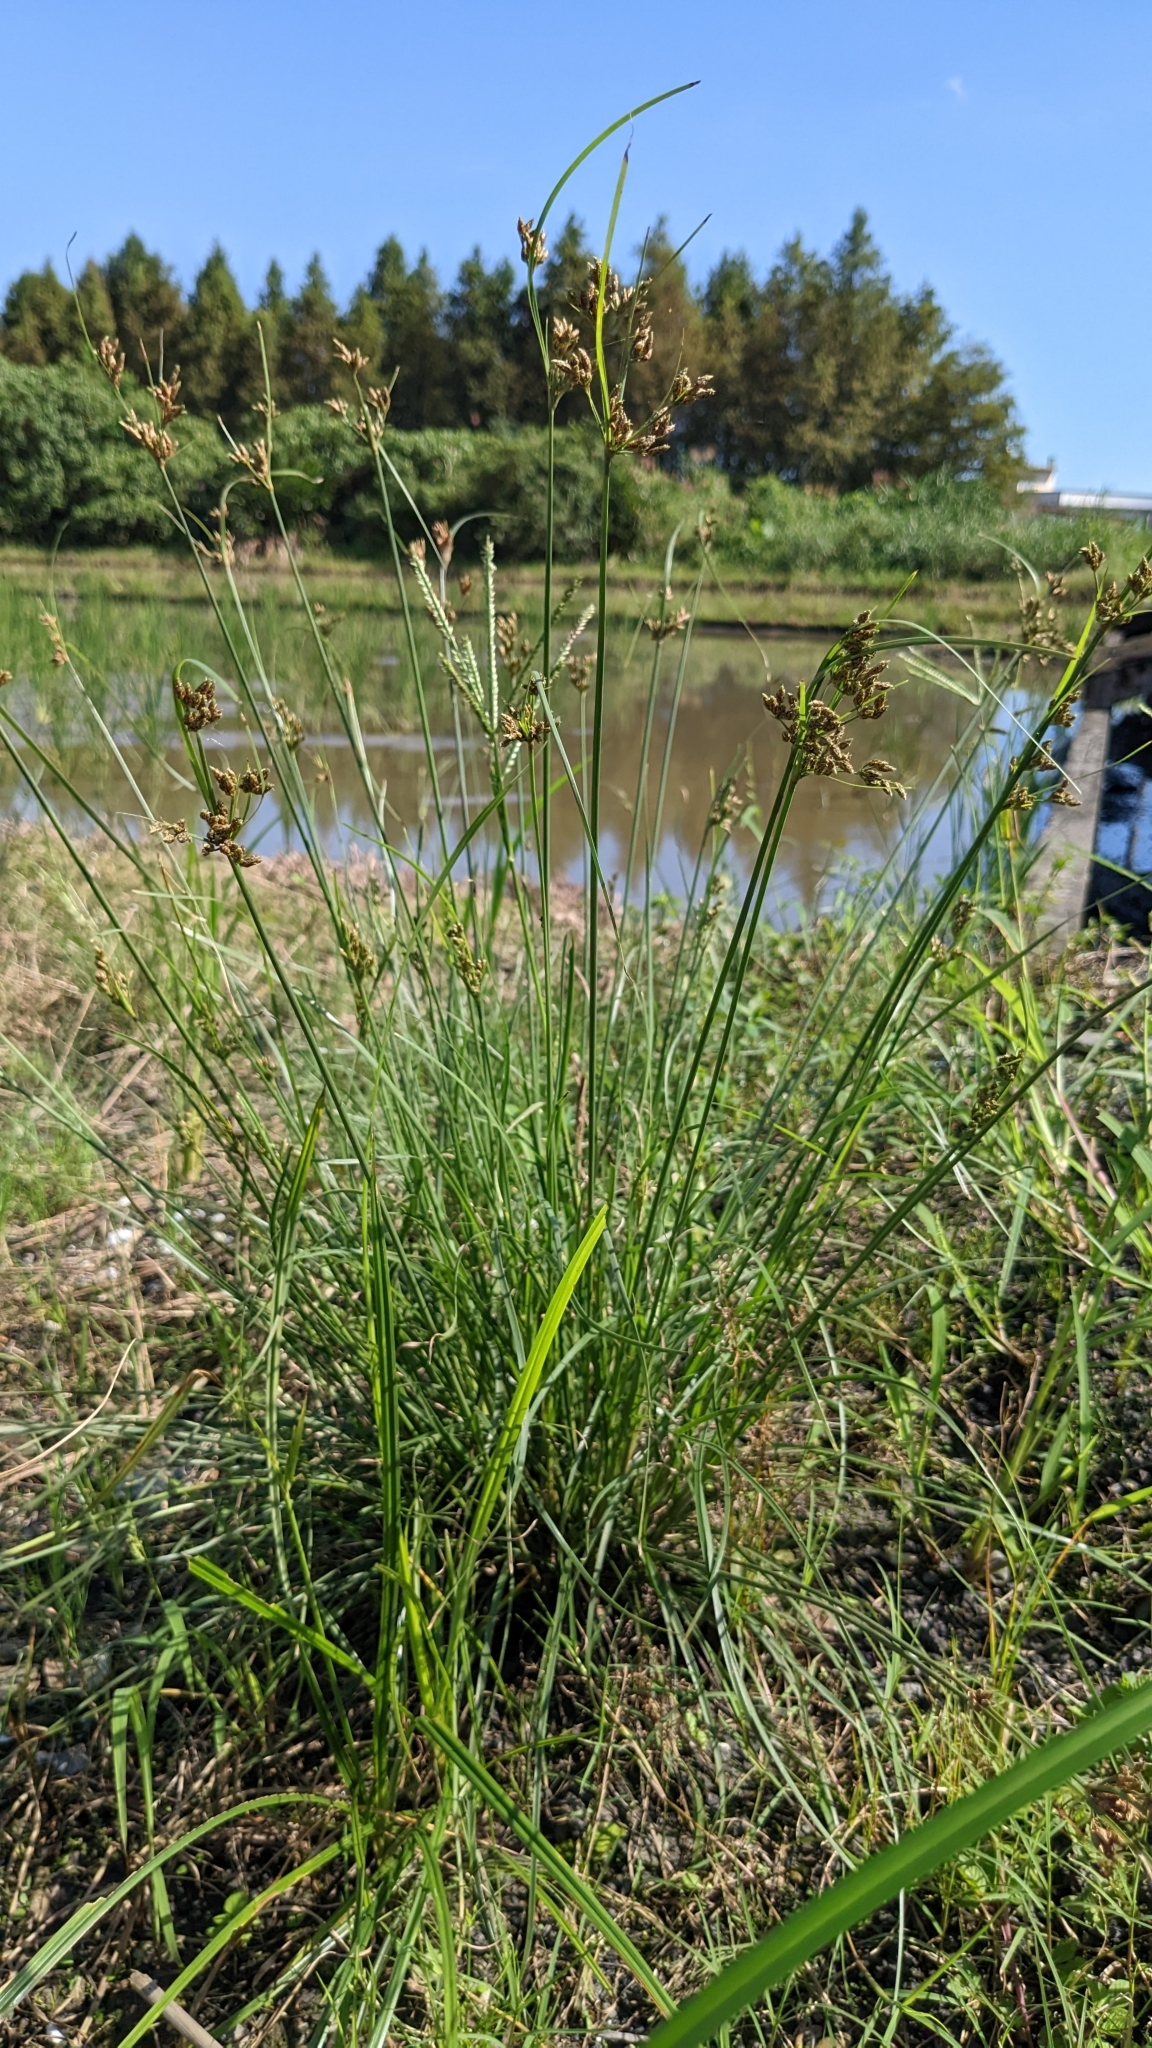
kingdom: Plantae
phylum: Tracheophyta
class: Liliopsida
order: Poales
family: Cyperaceae
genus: Fimbristylis
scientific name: Fimbristylis dichotoma
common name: Forked fimbry
